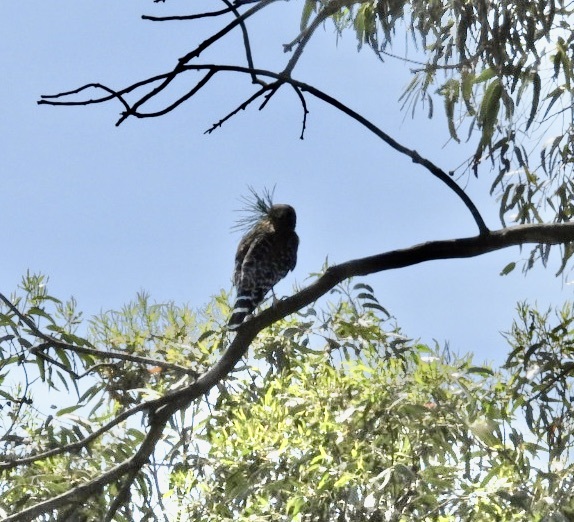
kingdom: Animalia
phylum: Chordata
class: Aves
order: Accipitriformes
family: Accipitridae
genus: Buteo
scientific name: Buteo lineatus
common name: Red-shouldered hawk
